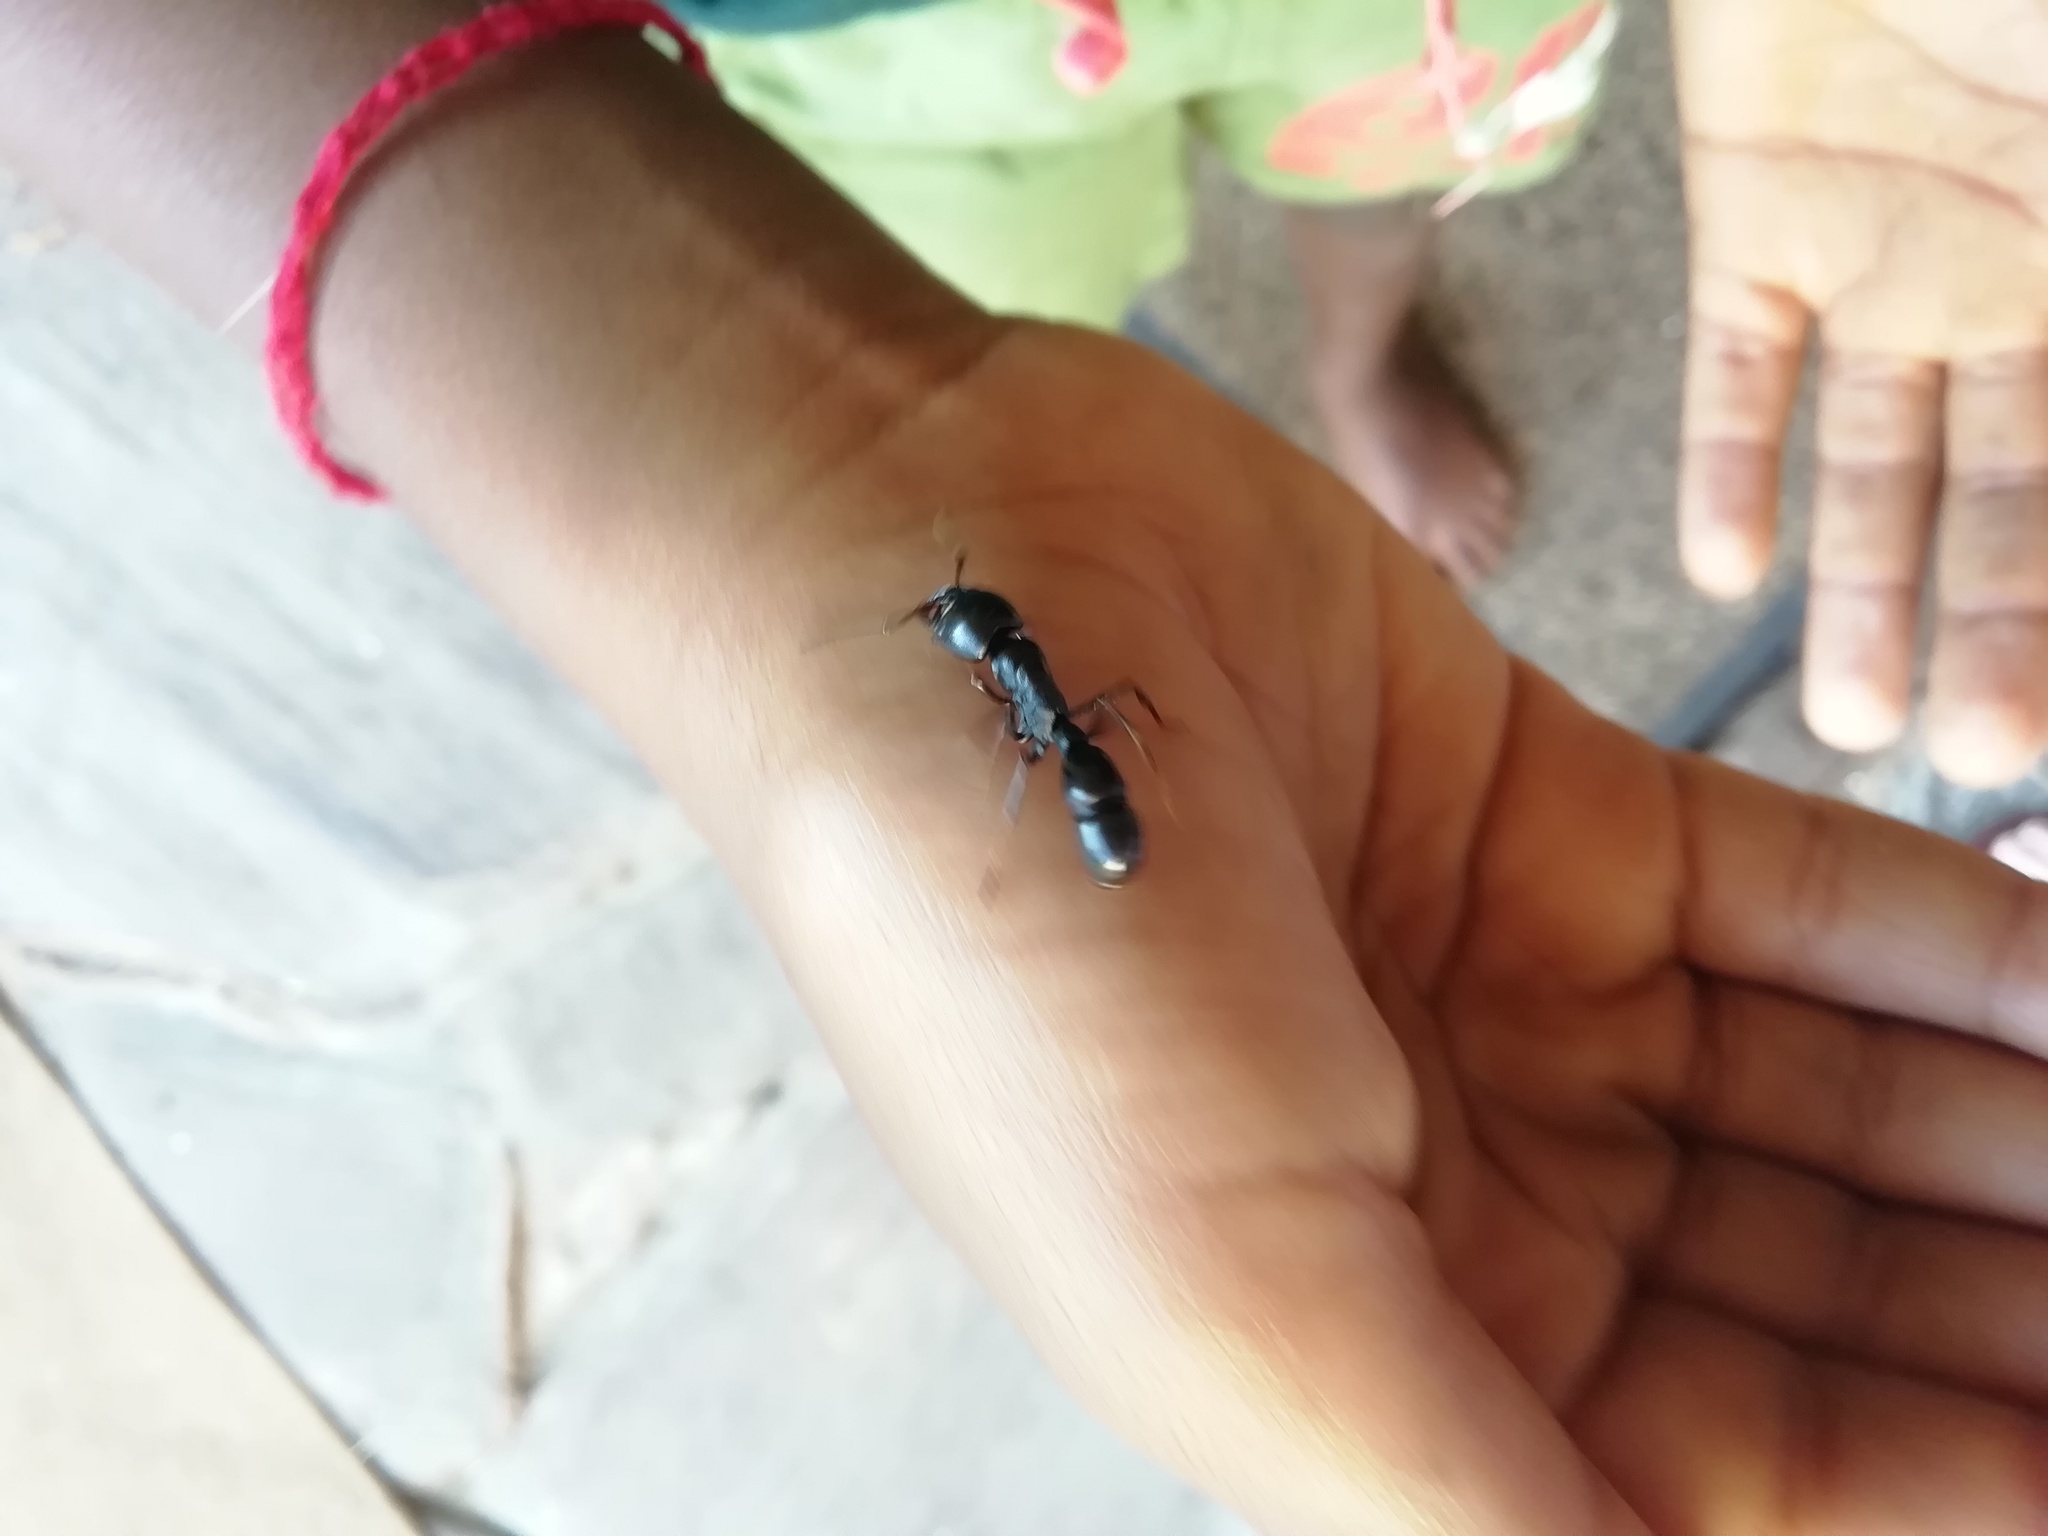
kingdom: Animalia
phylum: Arthropoda
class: Insecta
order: Hymenoptera
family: Formicidae
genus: Plectroctena
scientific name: Plectroctena mandibularis
